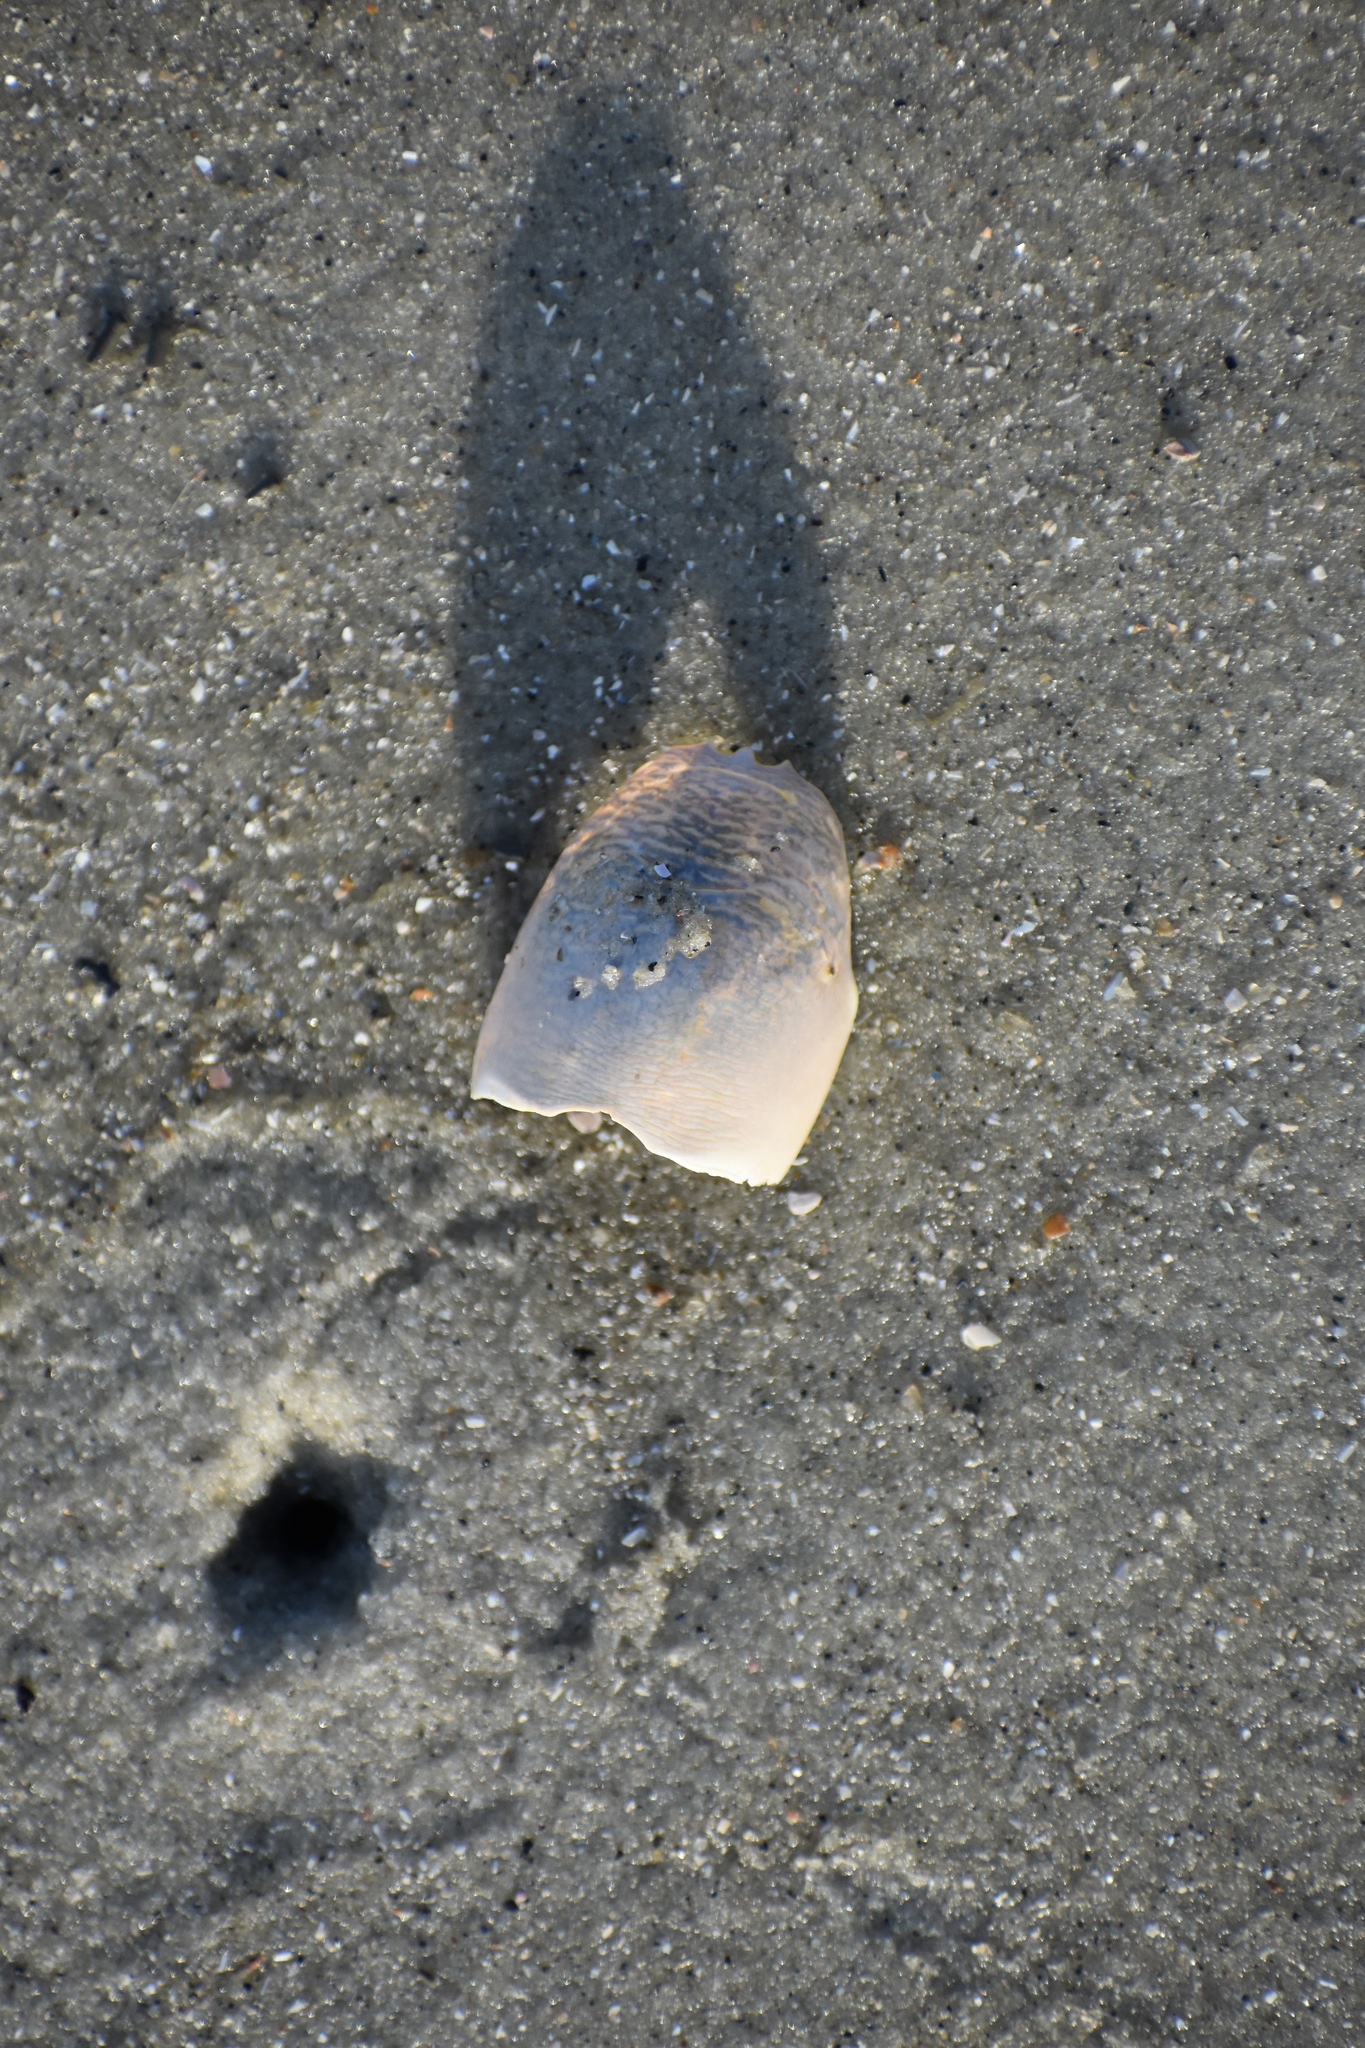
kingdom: Animalia
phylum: Arthropoda
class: Malacostraca
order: Decapoda
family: Hippidae
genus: Emerita
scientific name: Emerita talpoida
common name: Atlantic sand crab
